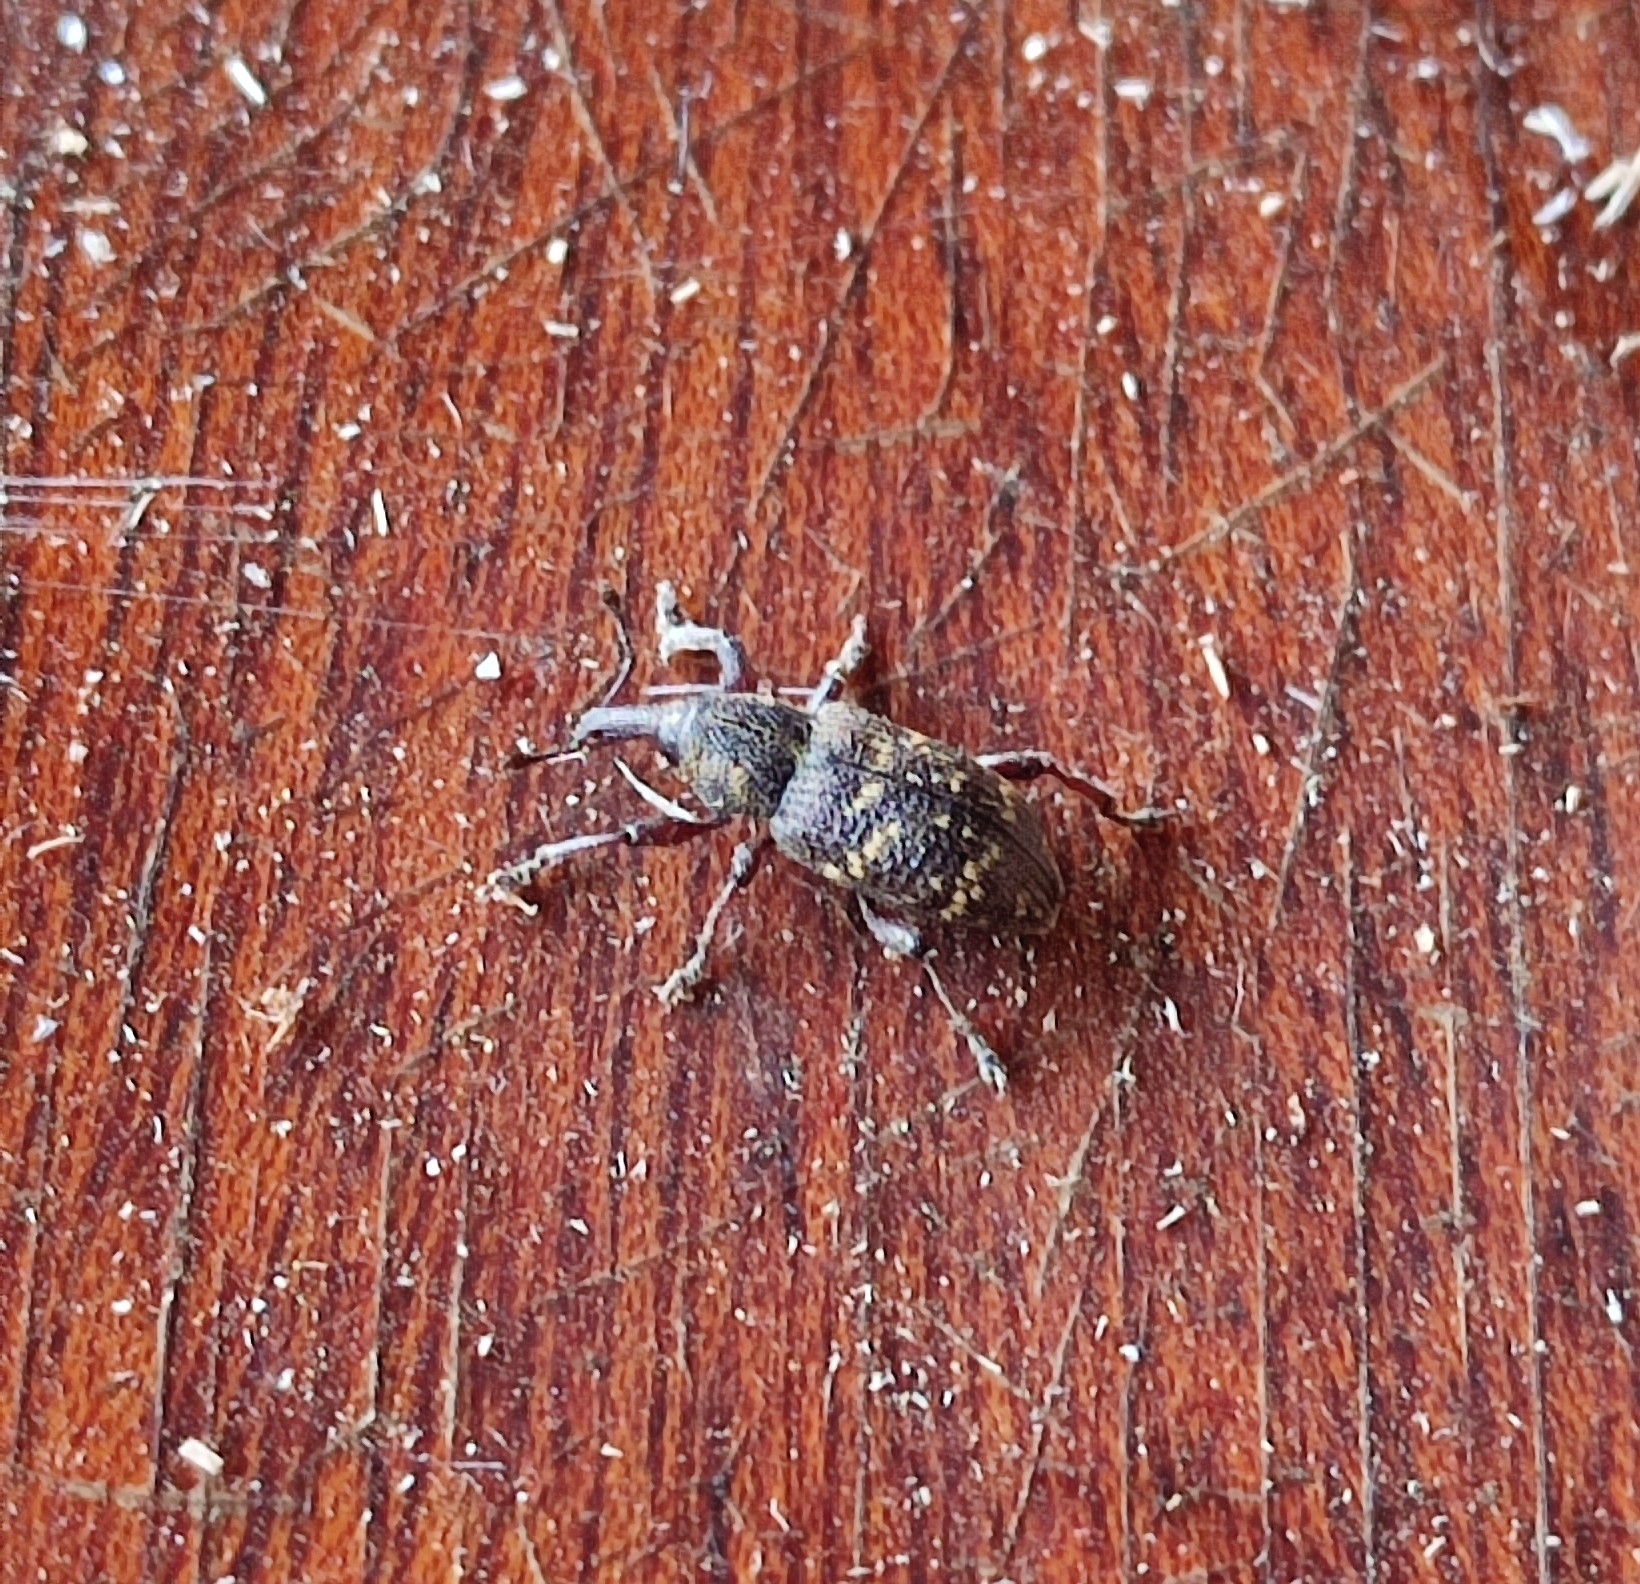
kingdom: Animalia
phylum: Arthropoda
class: Insecta
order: Coleoptera
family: Curculionidae
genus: Hylobius
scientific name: Hylobius abietis
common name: Large pine weevil
